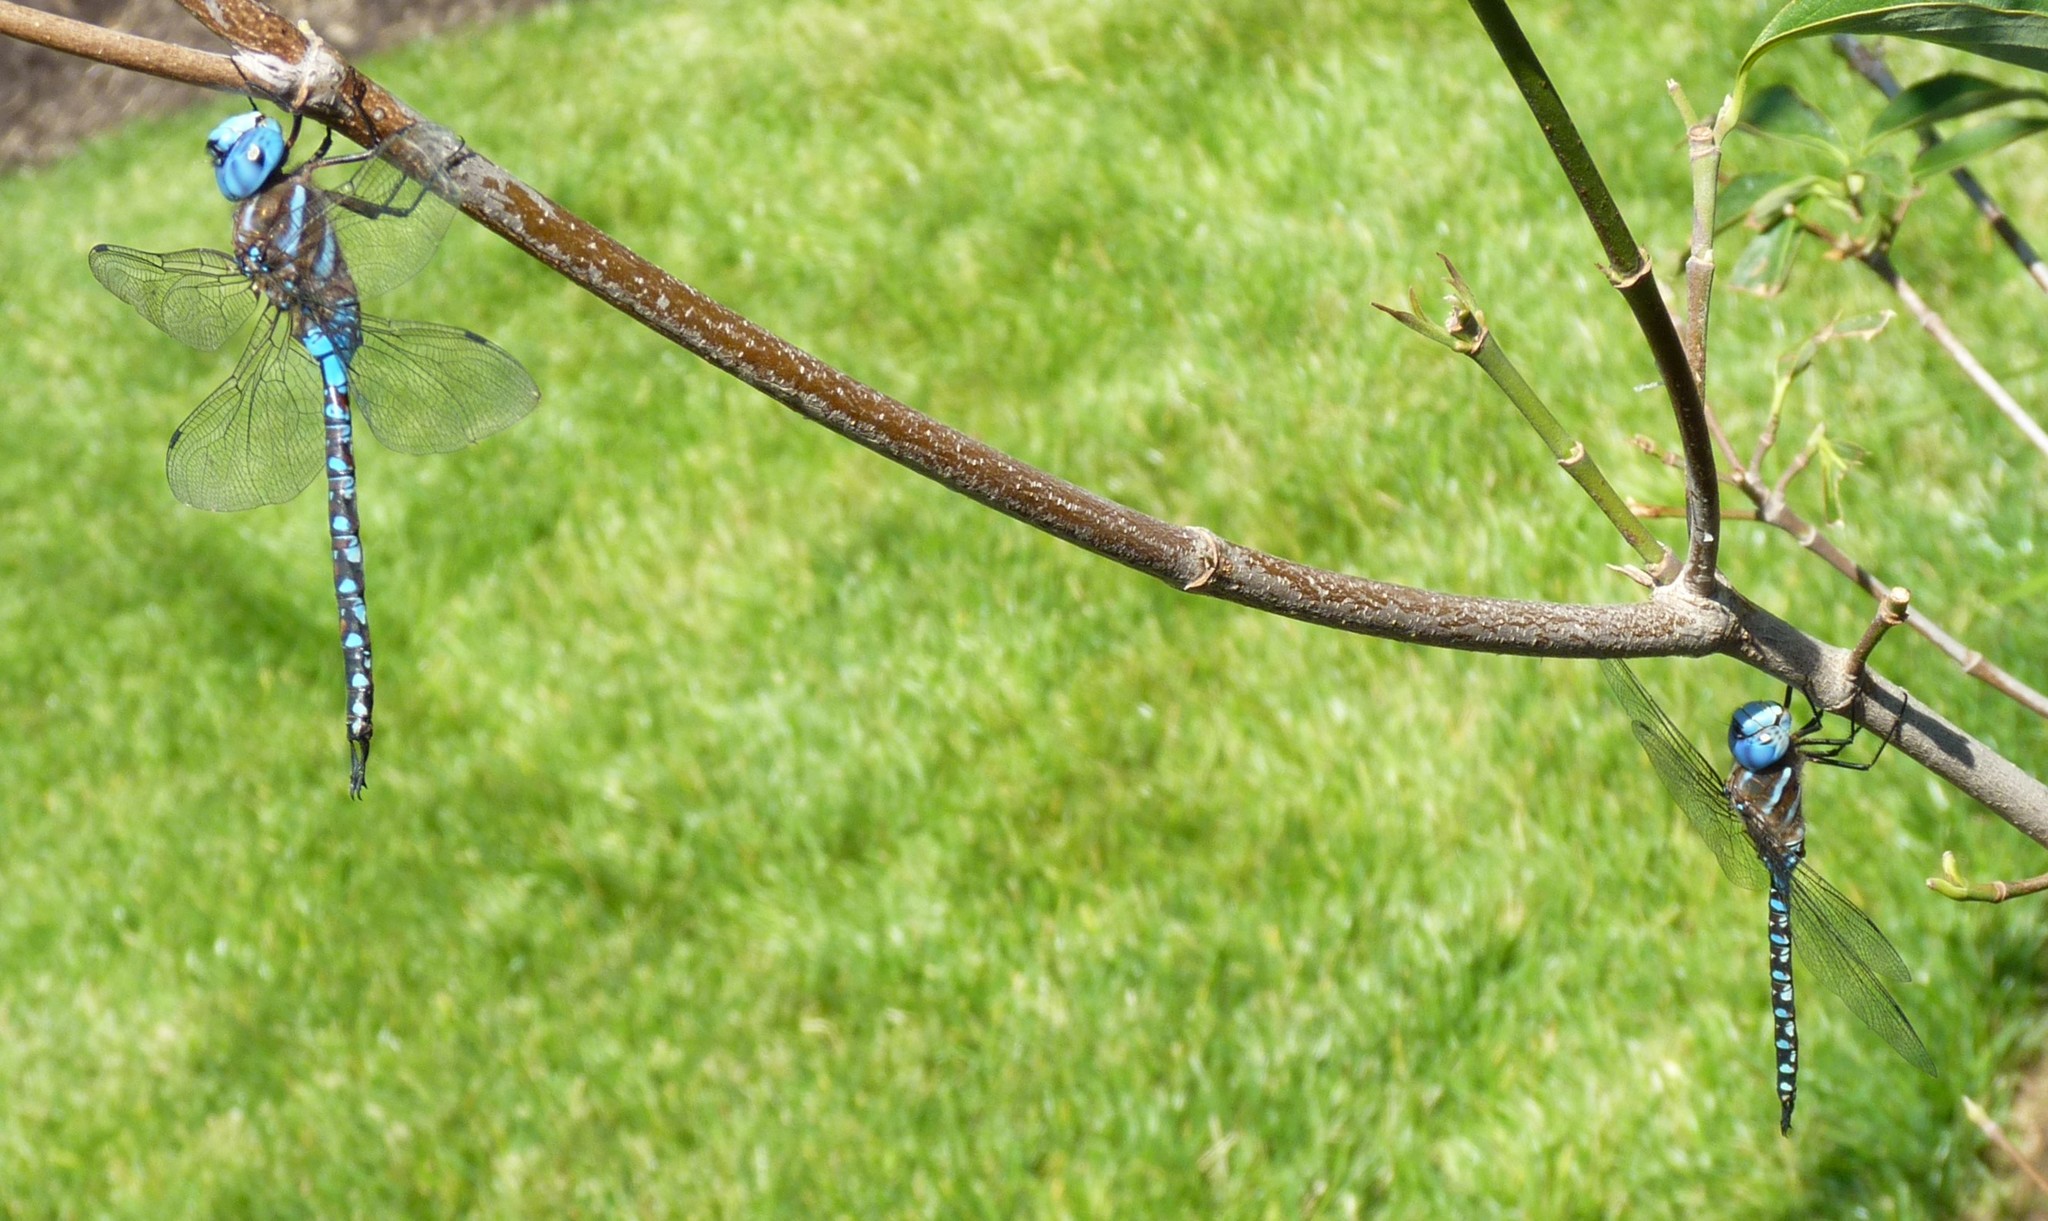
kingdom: Animalia
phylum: Arthropoda
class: Insecta
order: Odonata
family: Aeshnidae
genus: Rhionaeschna
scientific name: Rhionaeschna multicolor
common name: Blue-eyed darner
